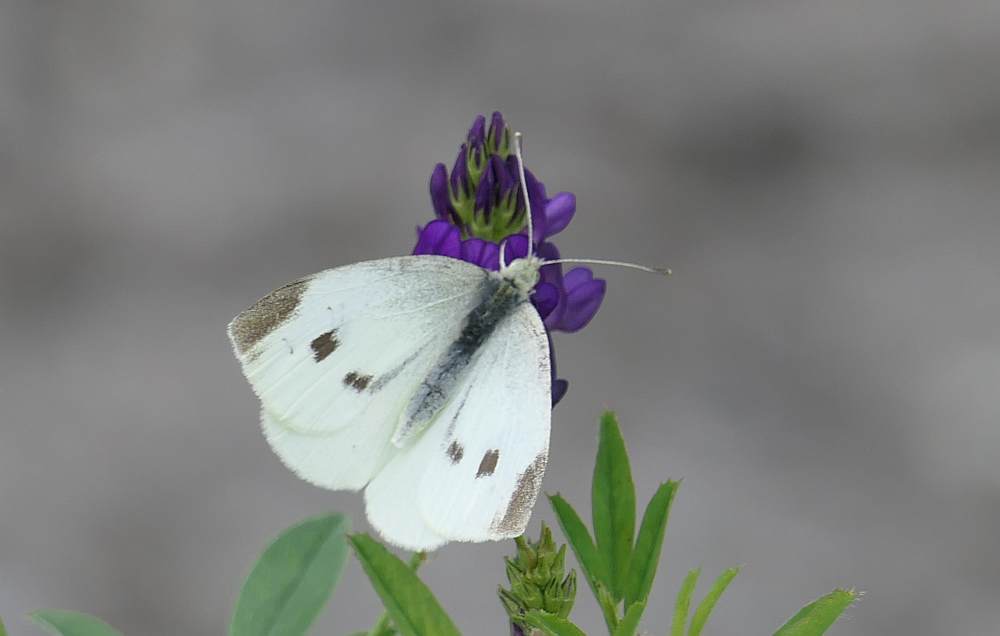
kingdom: Animalia
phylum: Arthropoda
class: Insecta
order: Lepidoptera
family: Pieridae
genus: Pieris
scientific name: Pieris rapae
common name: Small white
